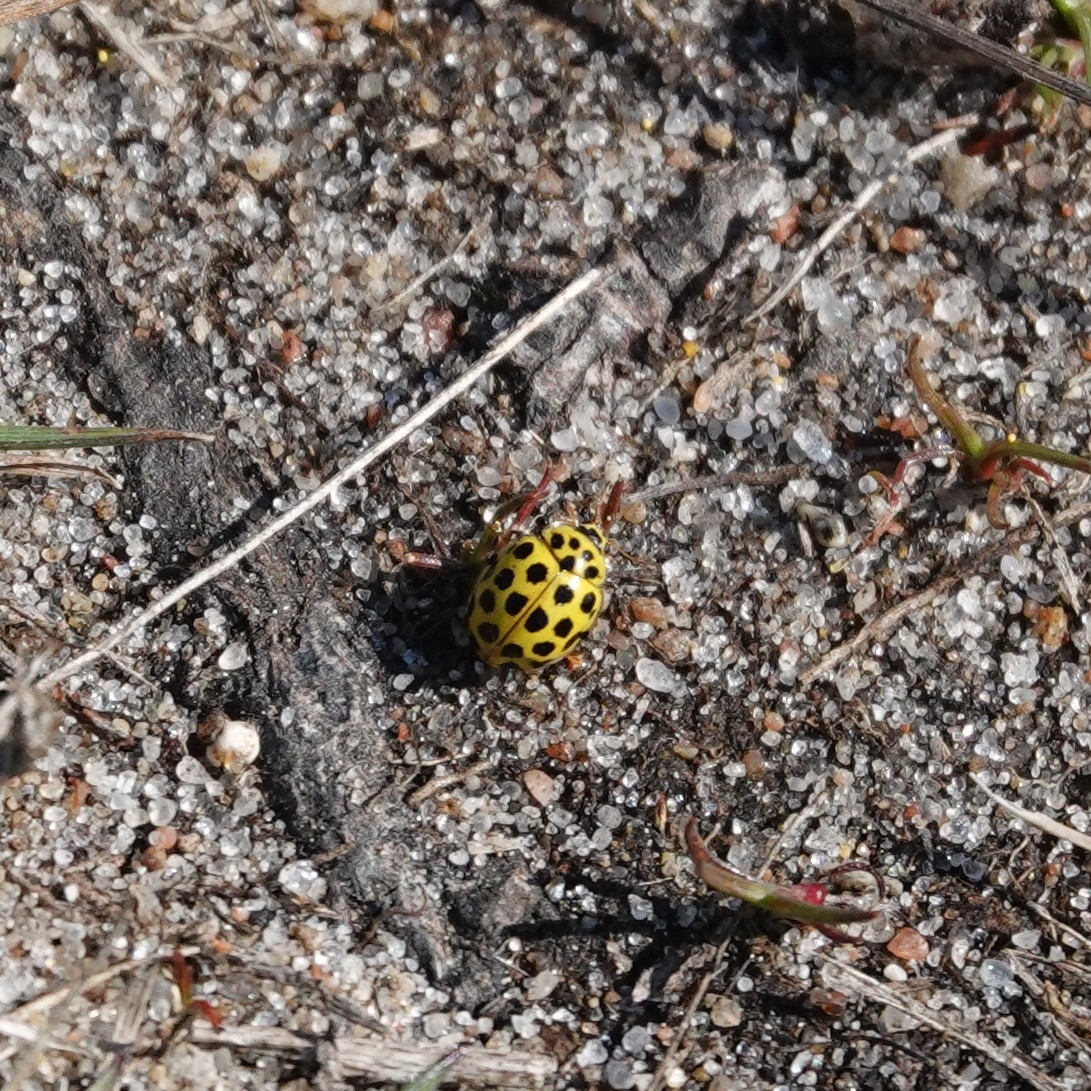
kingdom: Animalia
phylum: Arthropoda
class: Insecta
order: Coleoptera
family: Coccinellidae
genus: Psyllobora
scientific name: Psyllobora vigintiduopunctata
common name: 22-spot ladybird
